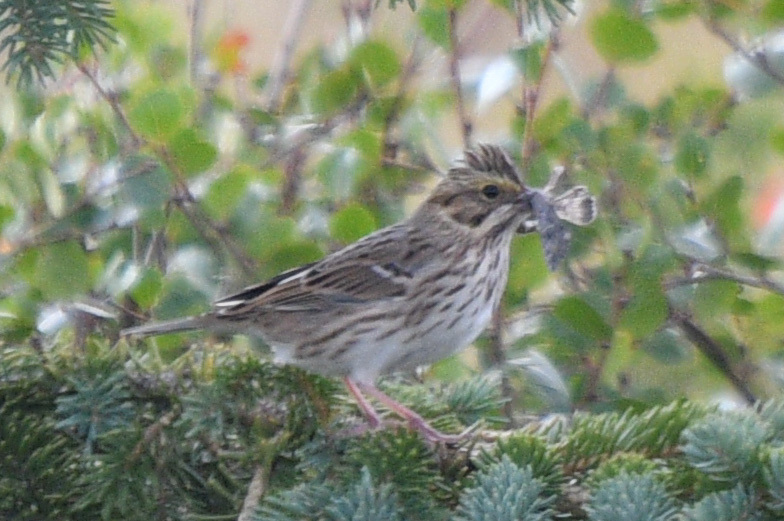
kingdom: Animalia
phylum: Chordata
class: Aves
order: Passeriformes
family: Passerellidae
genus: Passerculus
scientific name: Passerculus sandwichensis
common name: Savannah sparrow
